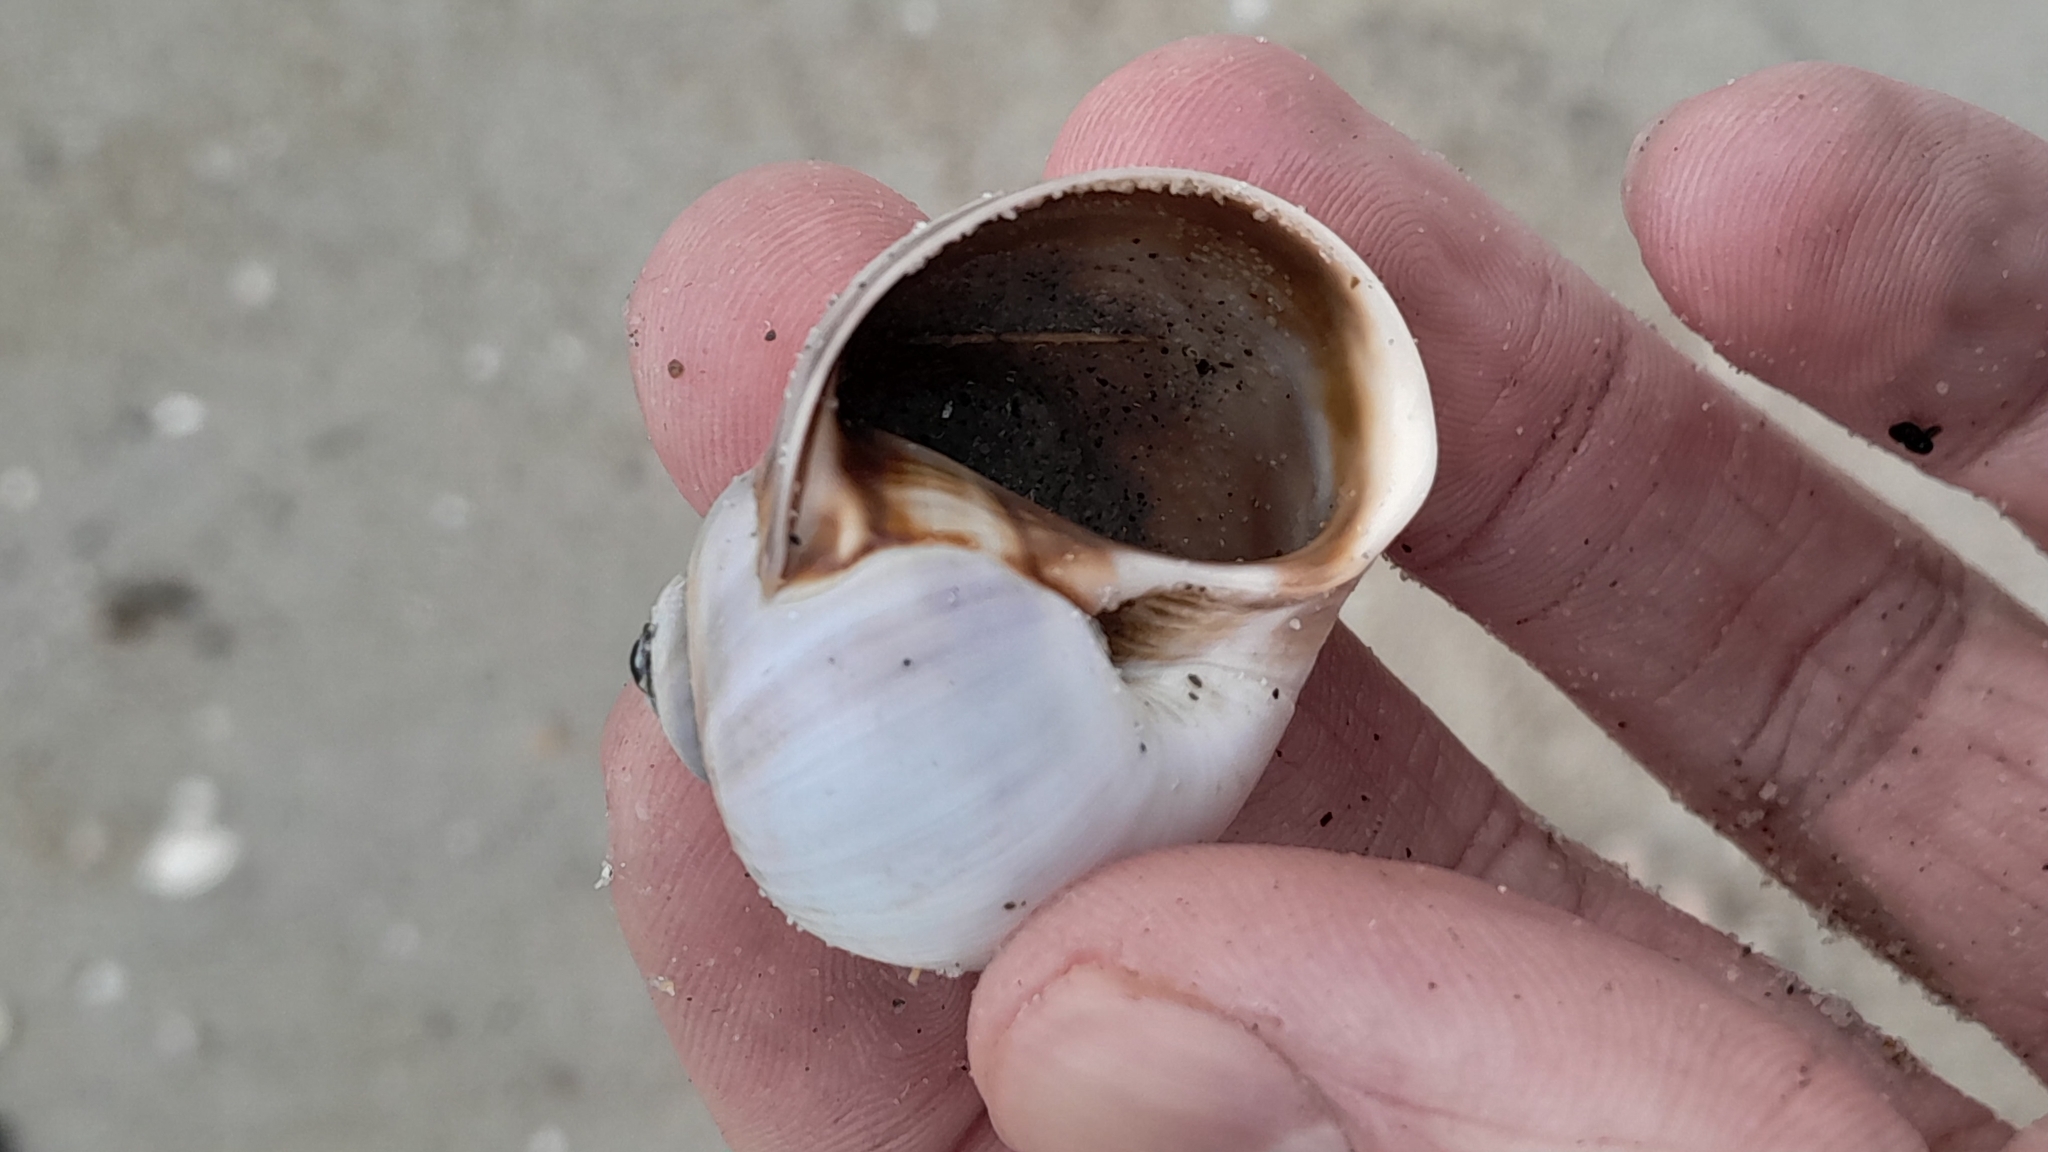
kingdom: Animalia
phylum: Mollusca
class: Gastropoda
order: Littorinimorpha
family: Naticidae
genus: Euspira
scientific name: Euspira heros
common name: Common northern moonsnail
